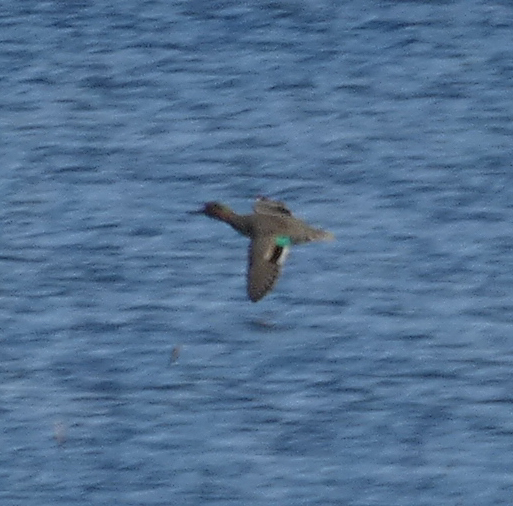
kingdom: Animalia
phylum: Chordata
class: Aves
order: Anseriformes
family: Anatidae
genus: Anas
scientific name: Anas crecca
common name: Eurasian teal
